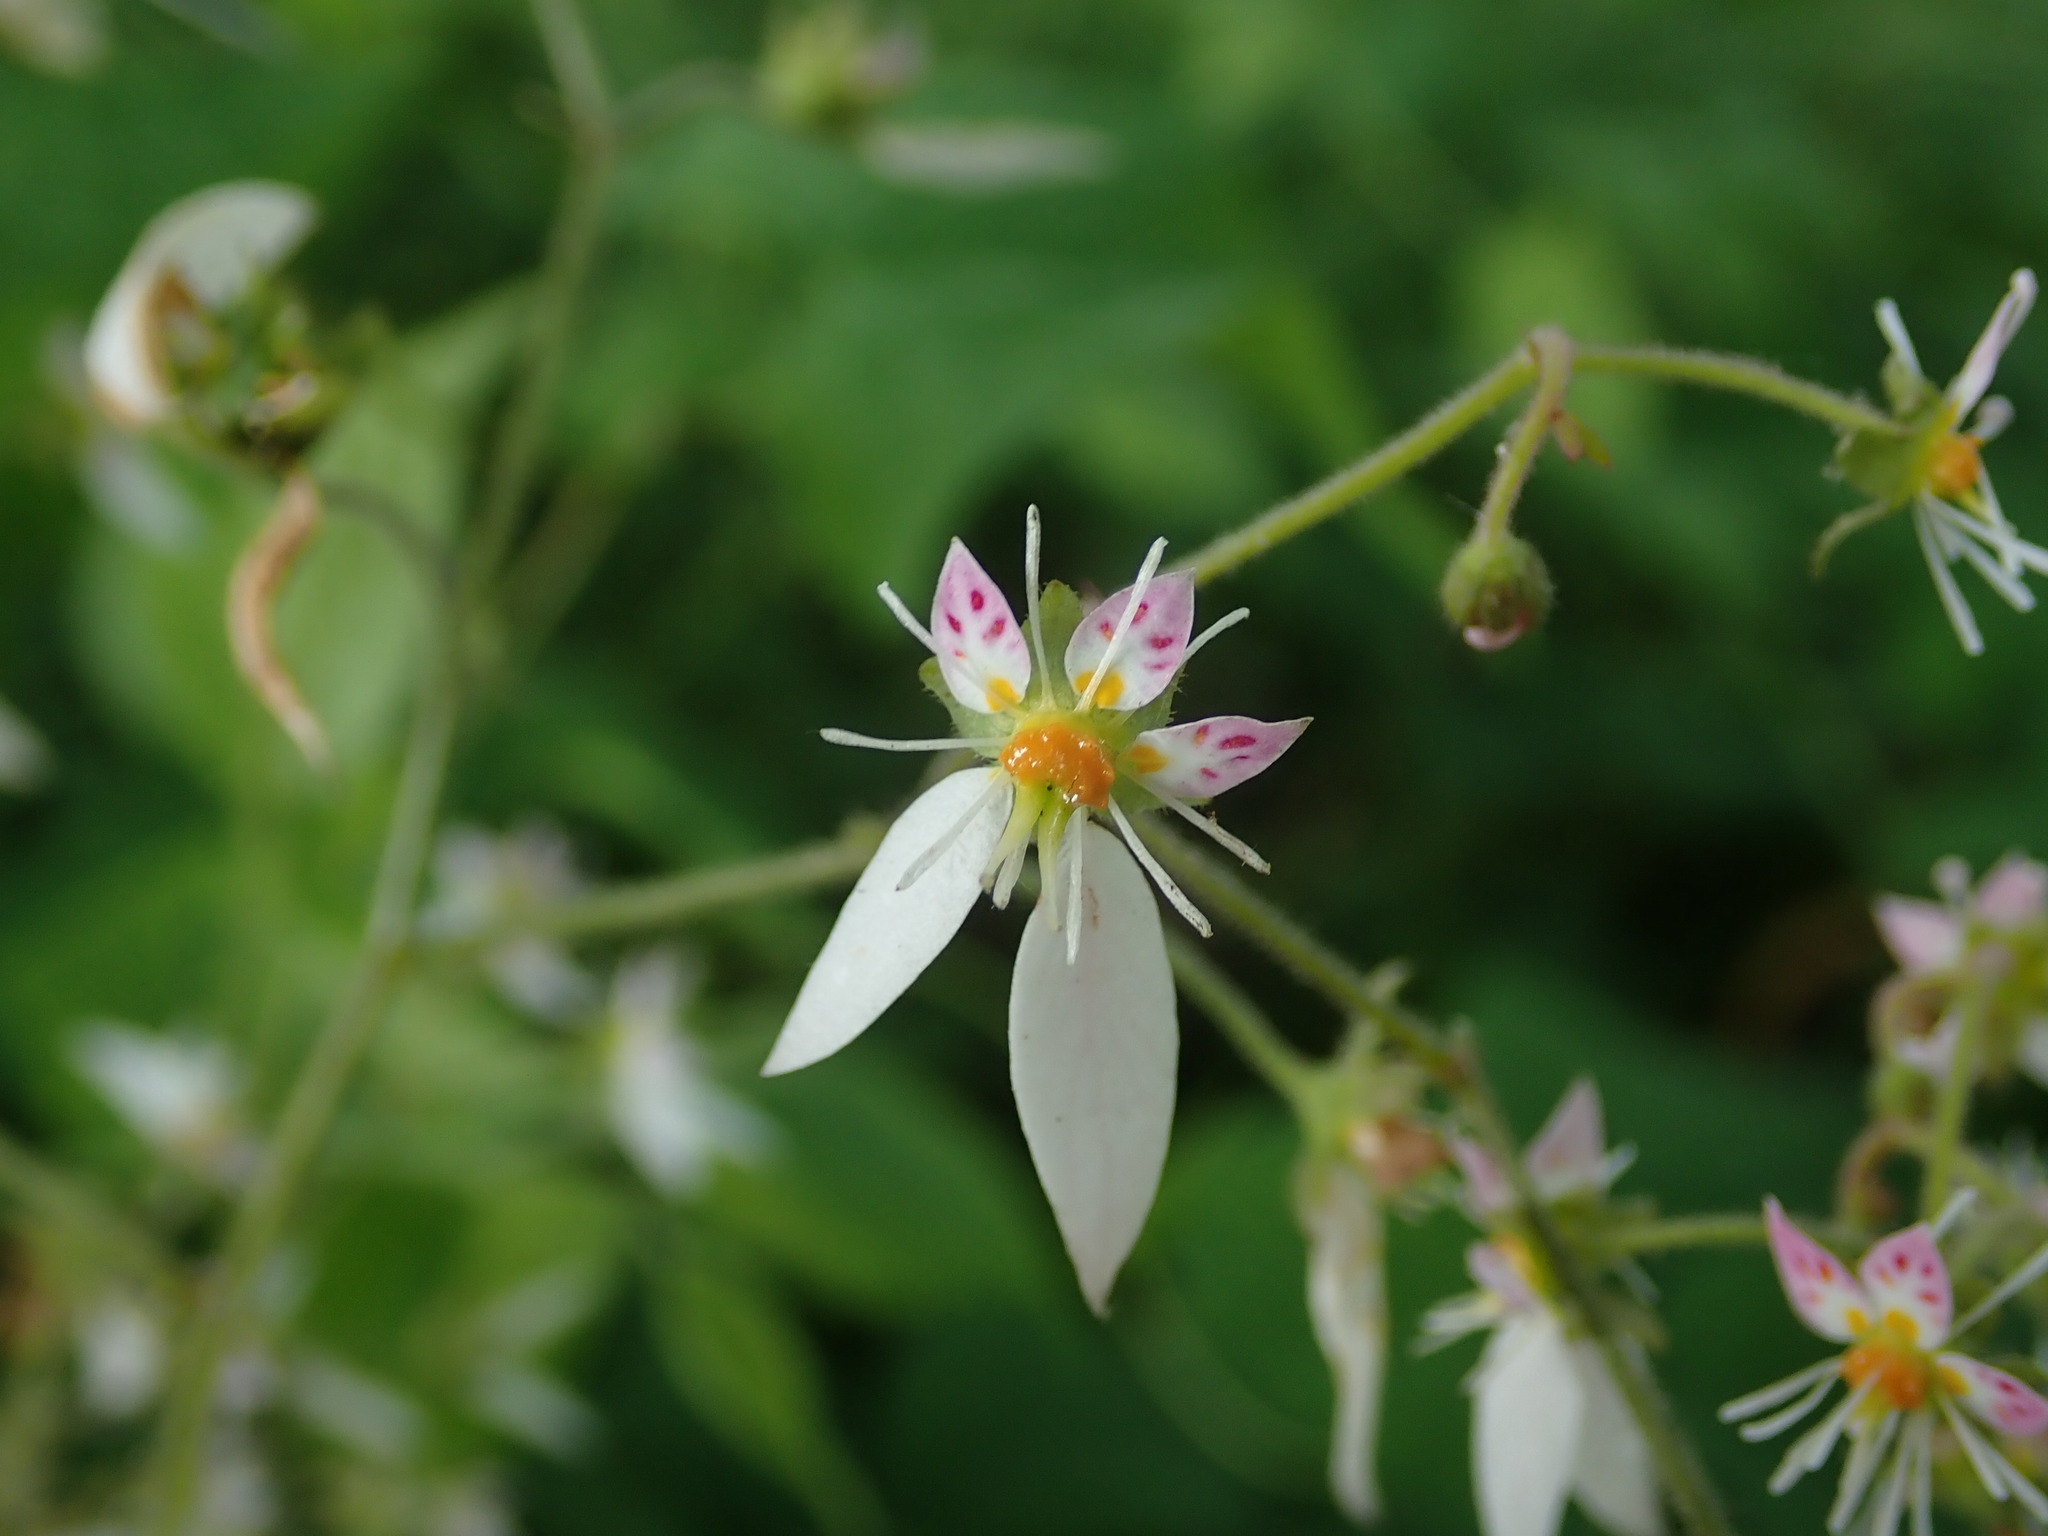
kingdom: Plantae
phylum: Tracheophyta
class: Magnoliopsida
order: Saxifragales
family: Saxifragaceae
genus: Saxifraga
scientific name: Saxifraga stolonifera
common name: Creeping saxifrage
